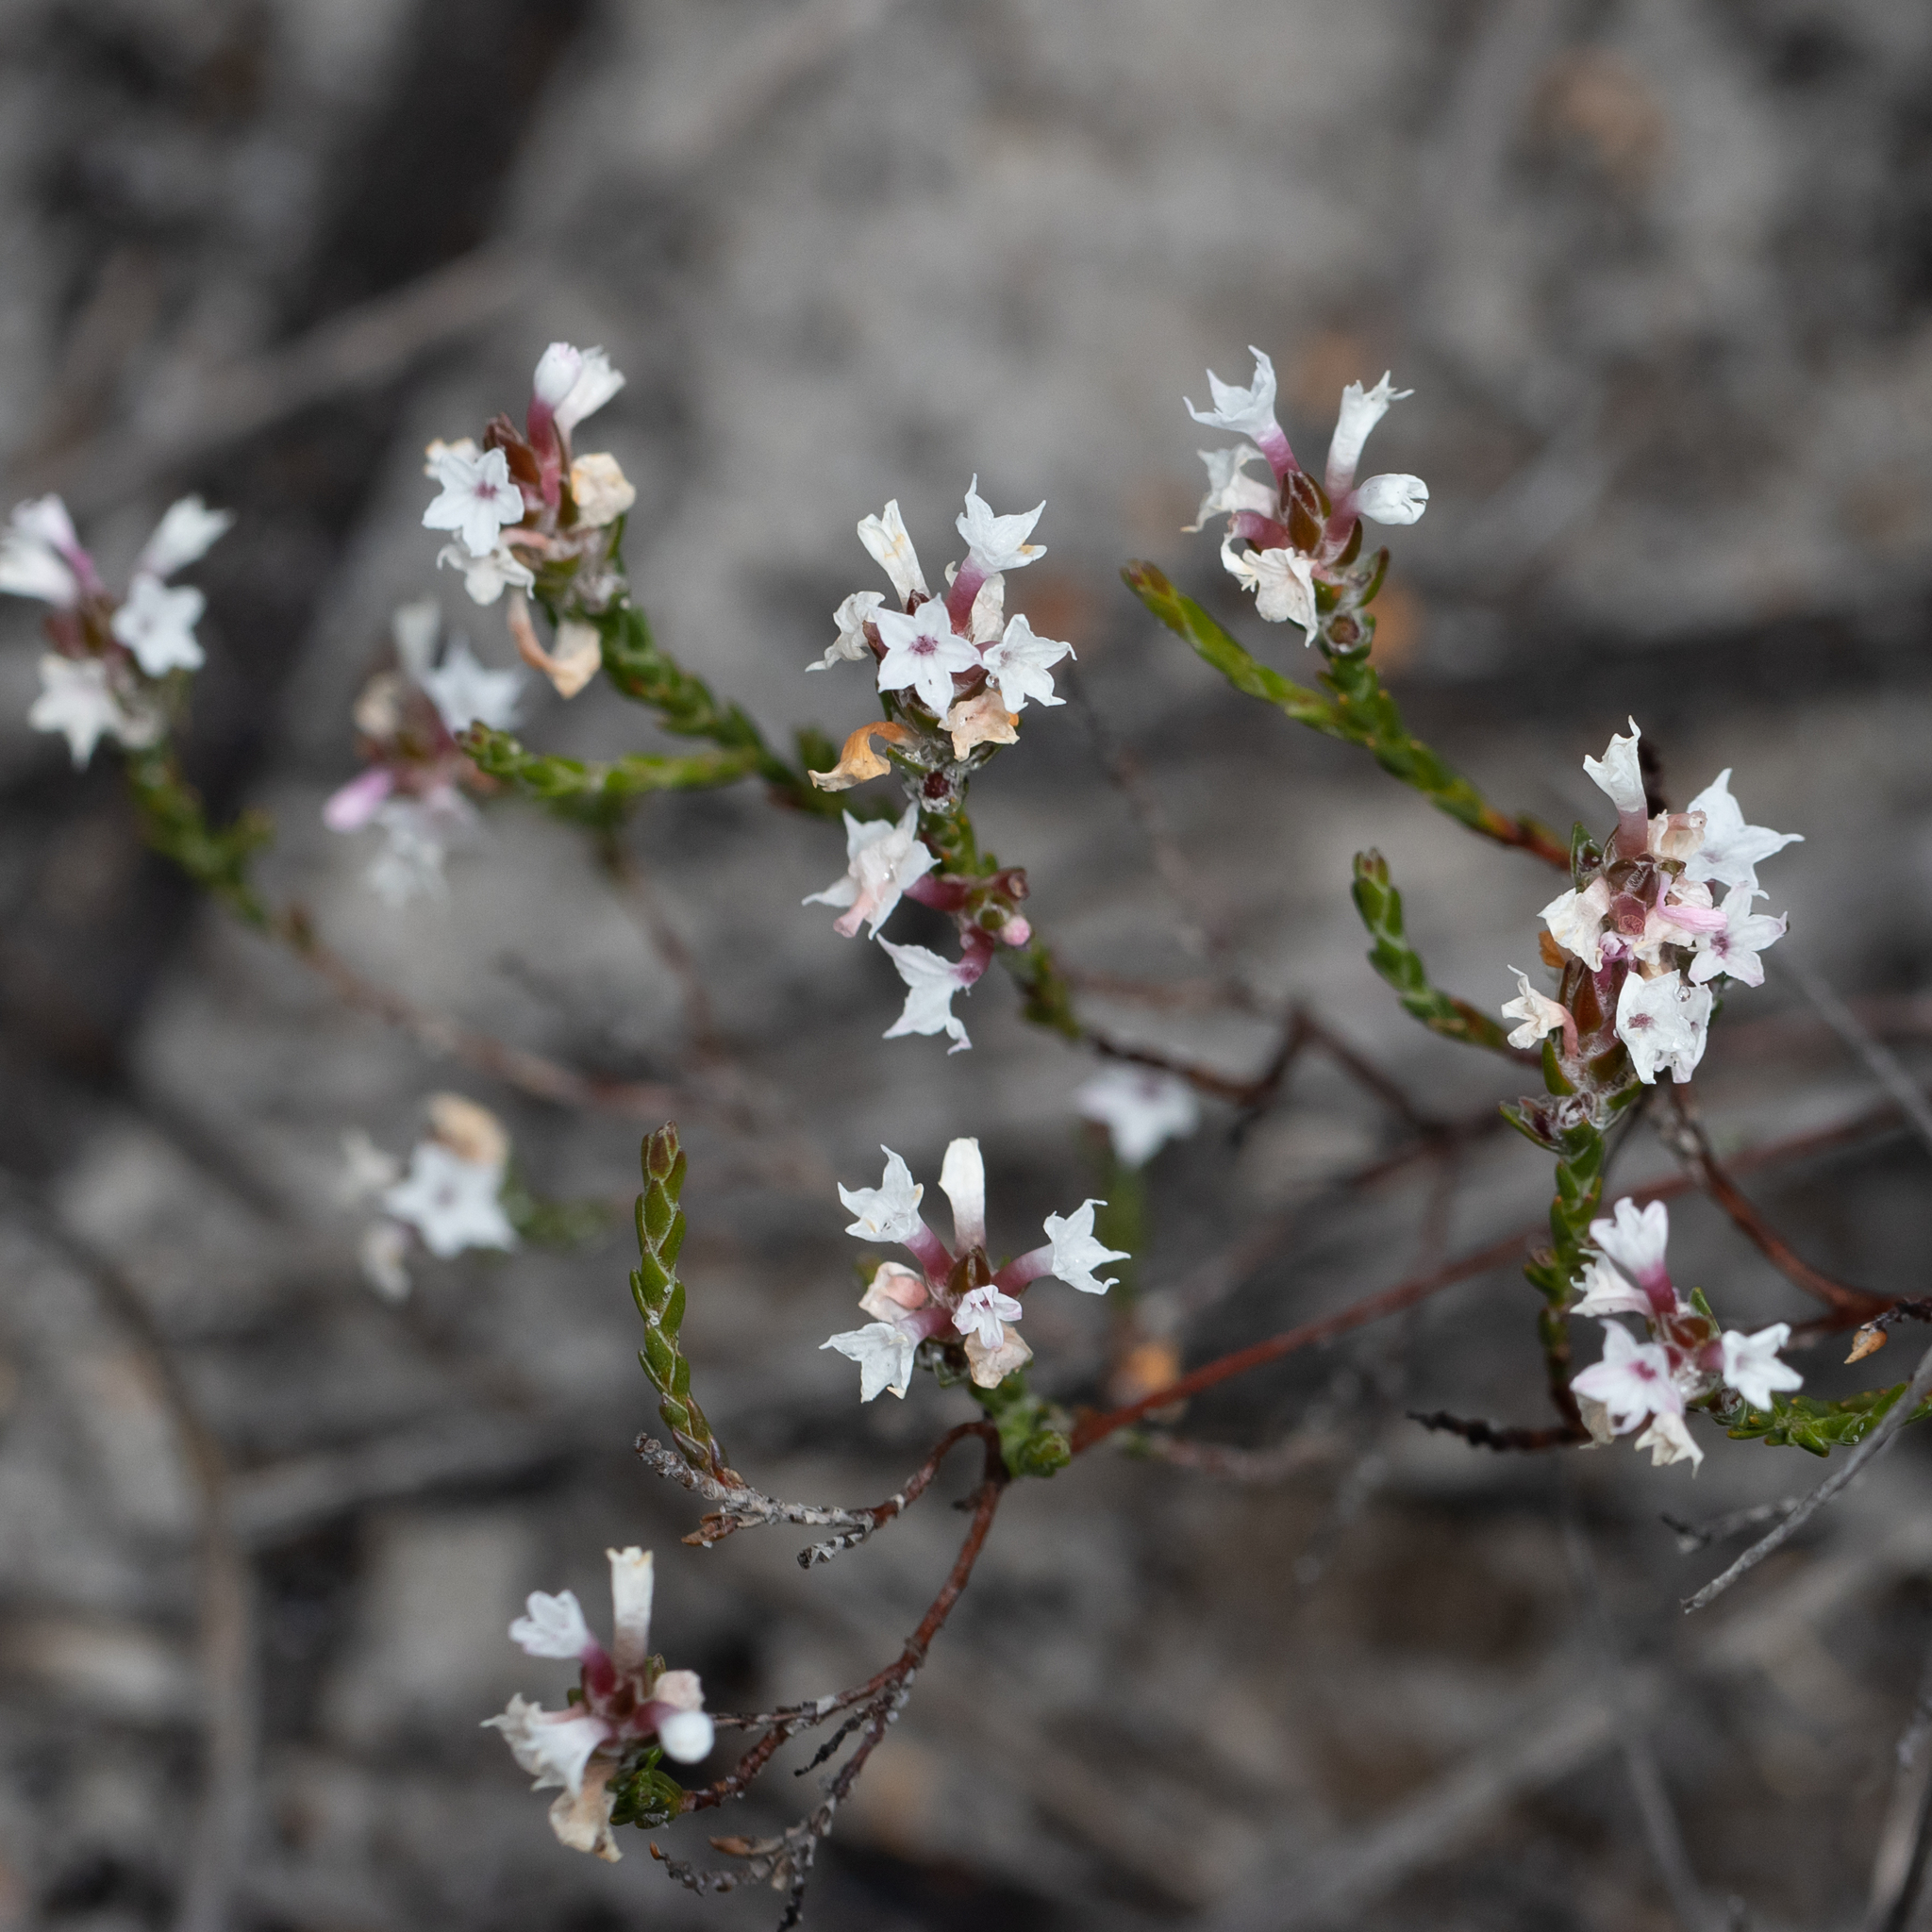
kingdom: Plantae
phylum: Tracheophyta
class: Magnoliopsida
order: Ericales
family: Ericaceae
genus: Needhamiella
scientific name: Needhamiella pumilio
